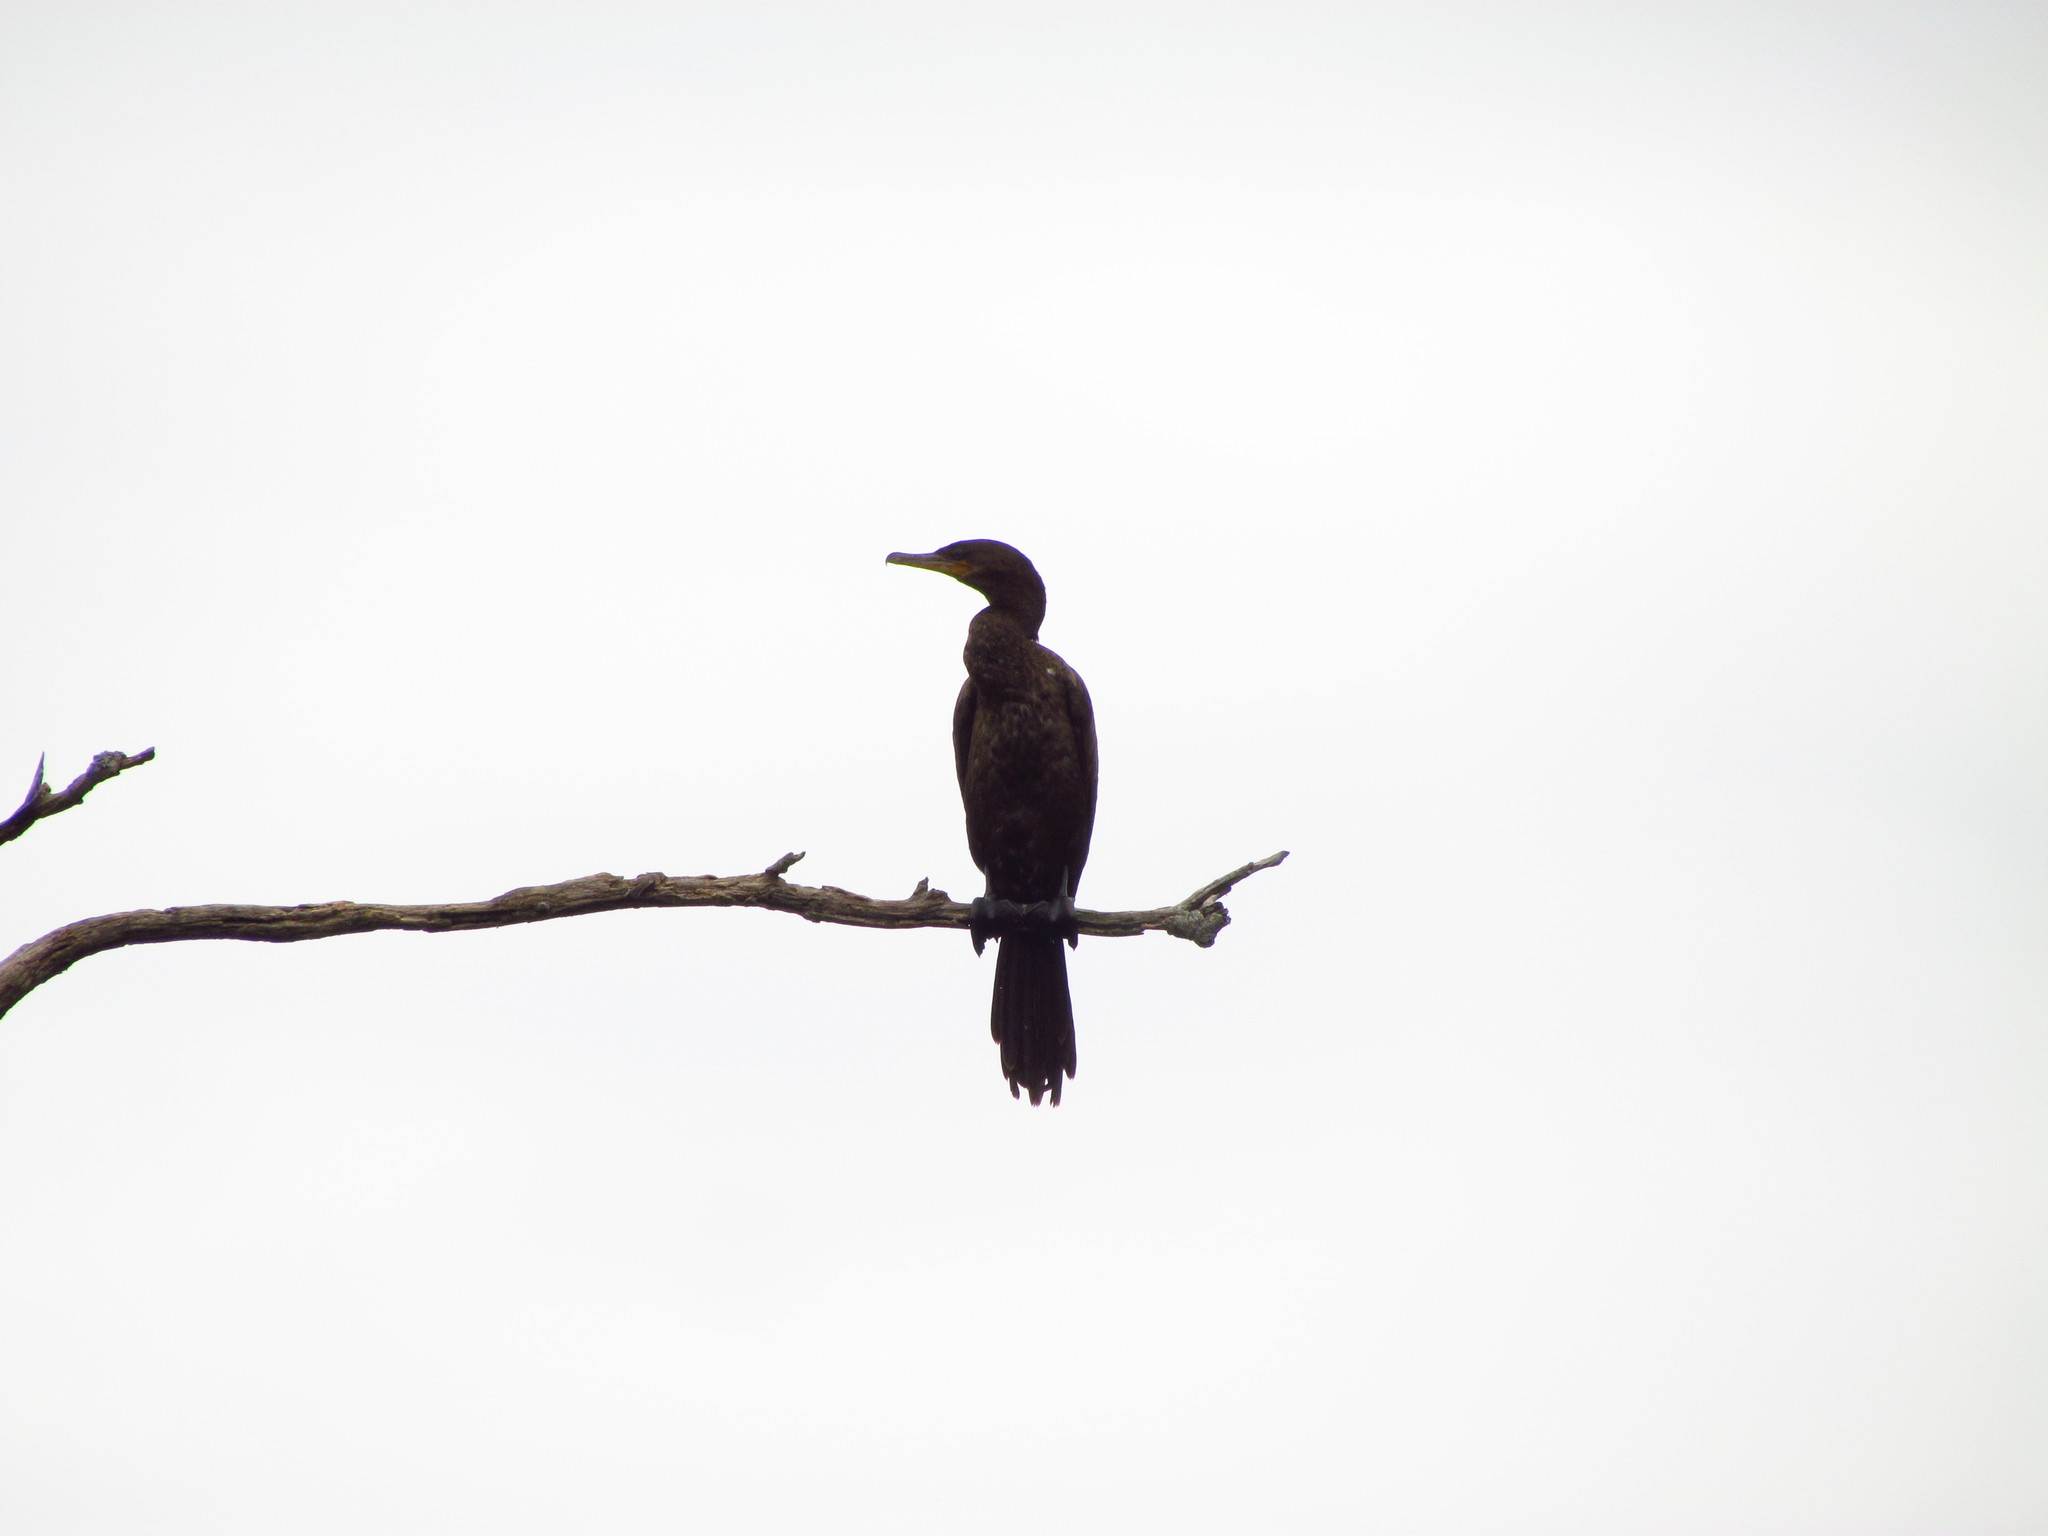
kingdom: Animalia
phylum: Chordata
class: Aves
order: Suliformes
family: Phalacrocoracidae
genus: Phalacrocorax
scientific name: Phalacrocorax brasilianus
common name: Neotropic cormorant
